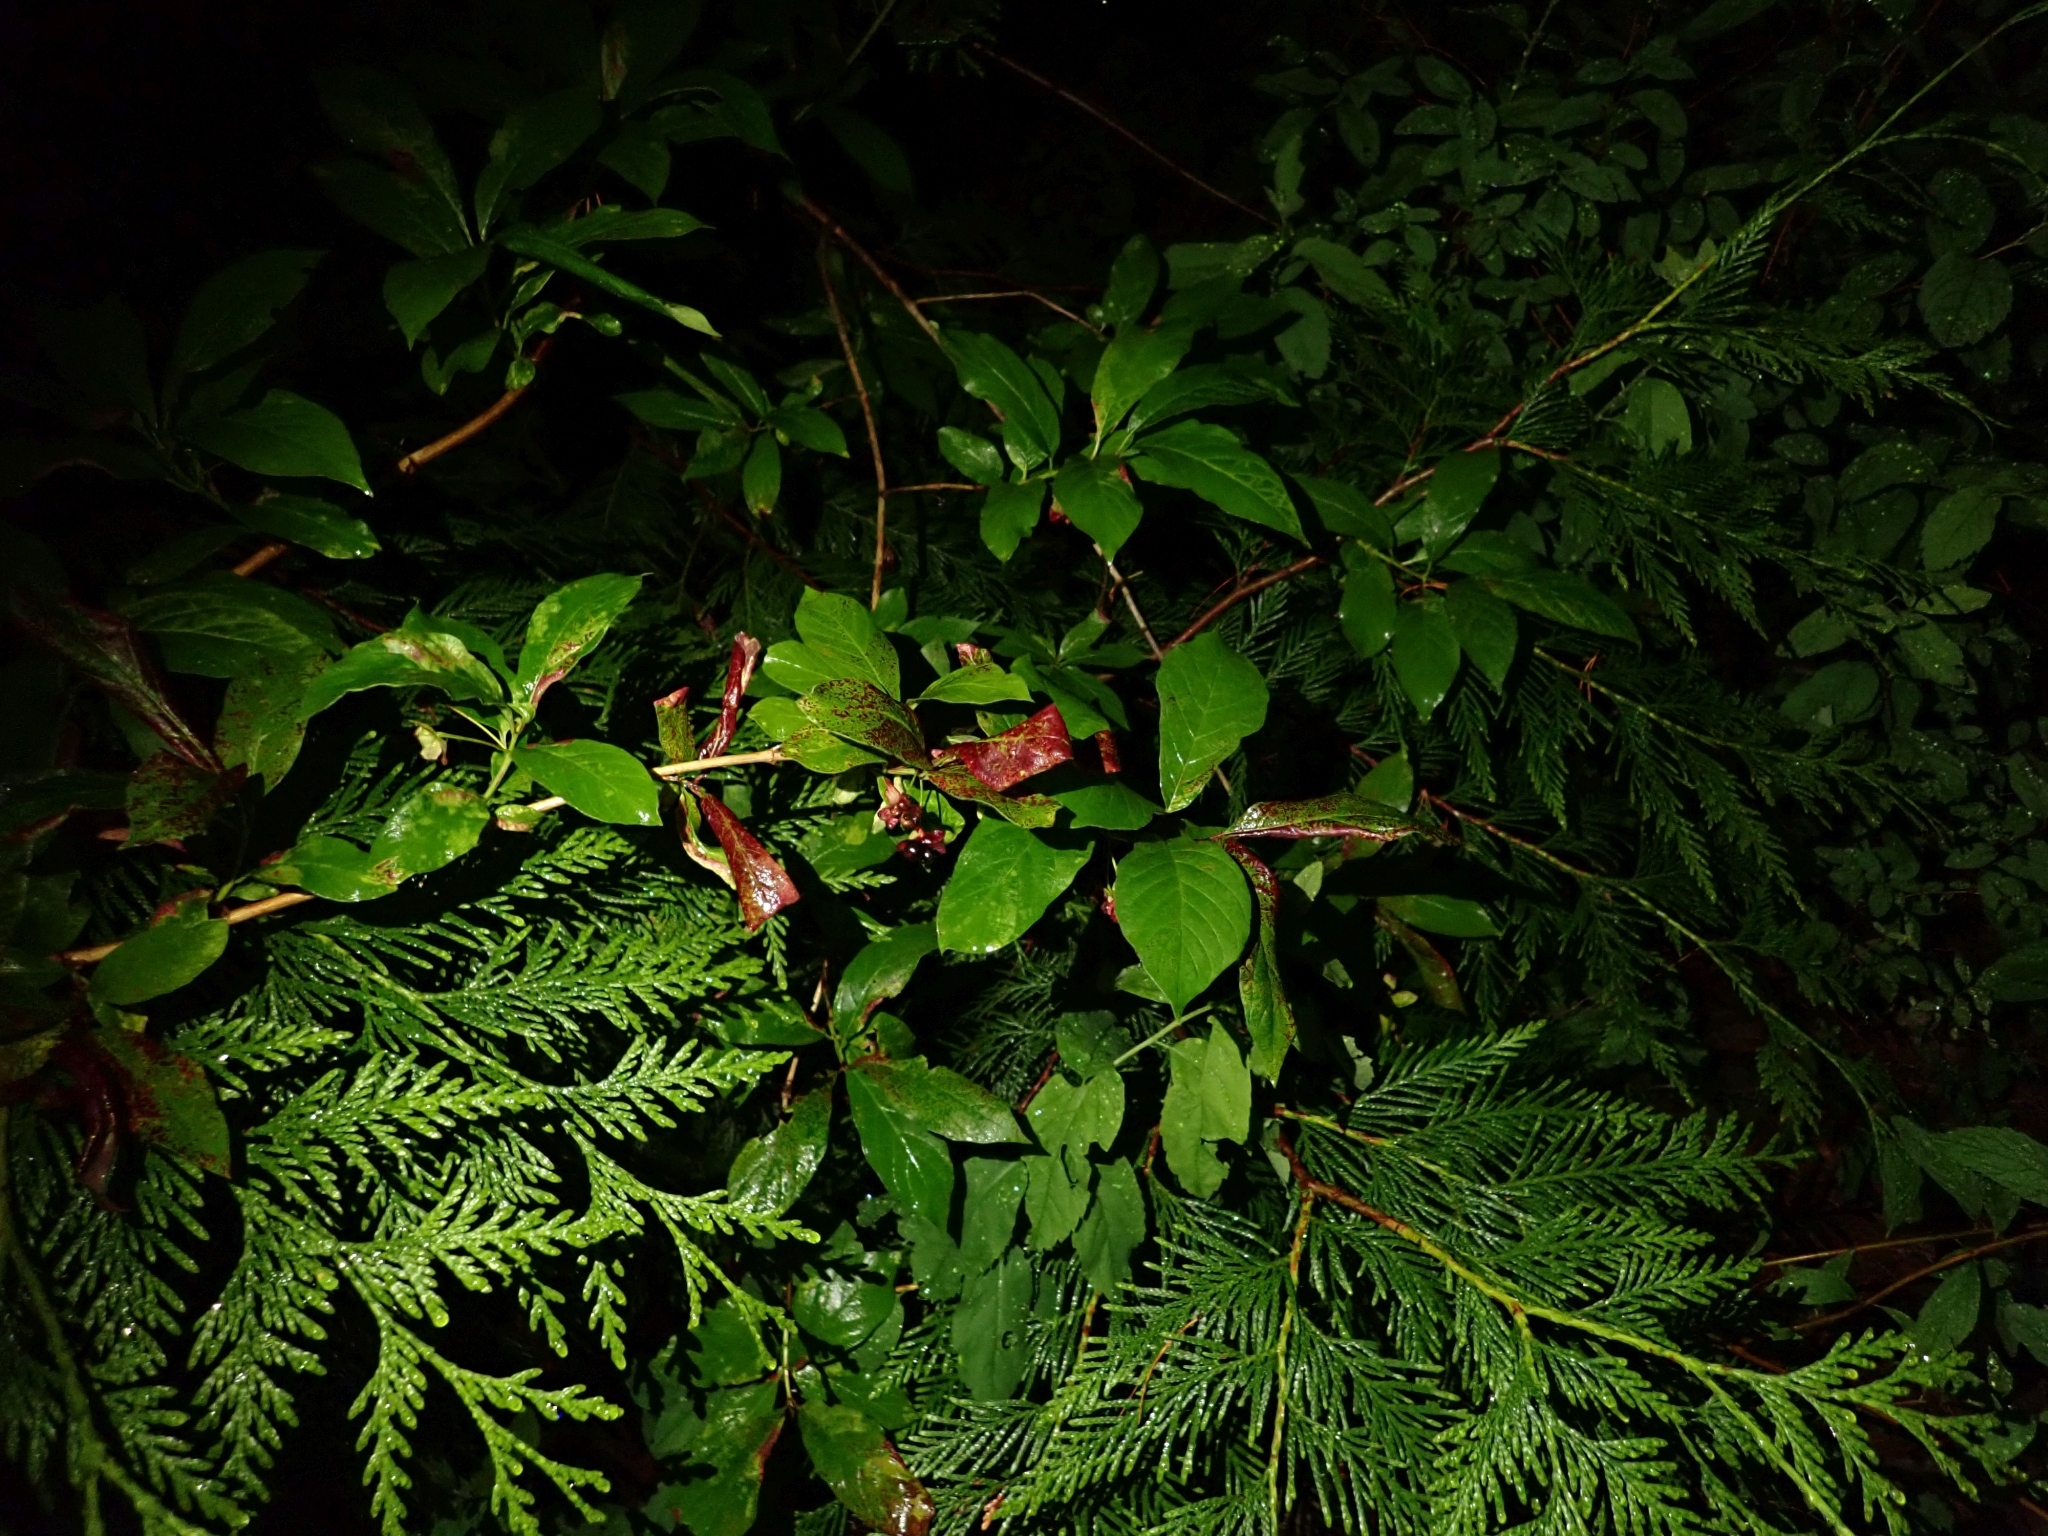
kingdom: Plantae
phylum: Tracheophyta
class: Magnoliopsida
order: Dipsacales
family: Caprifoliaceae
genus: Lonicera
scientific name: Lonicera involucrata
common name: Californian honeysuckle
